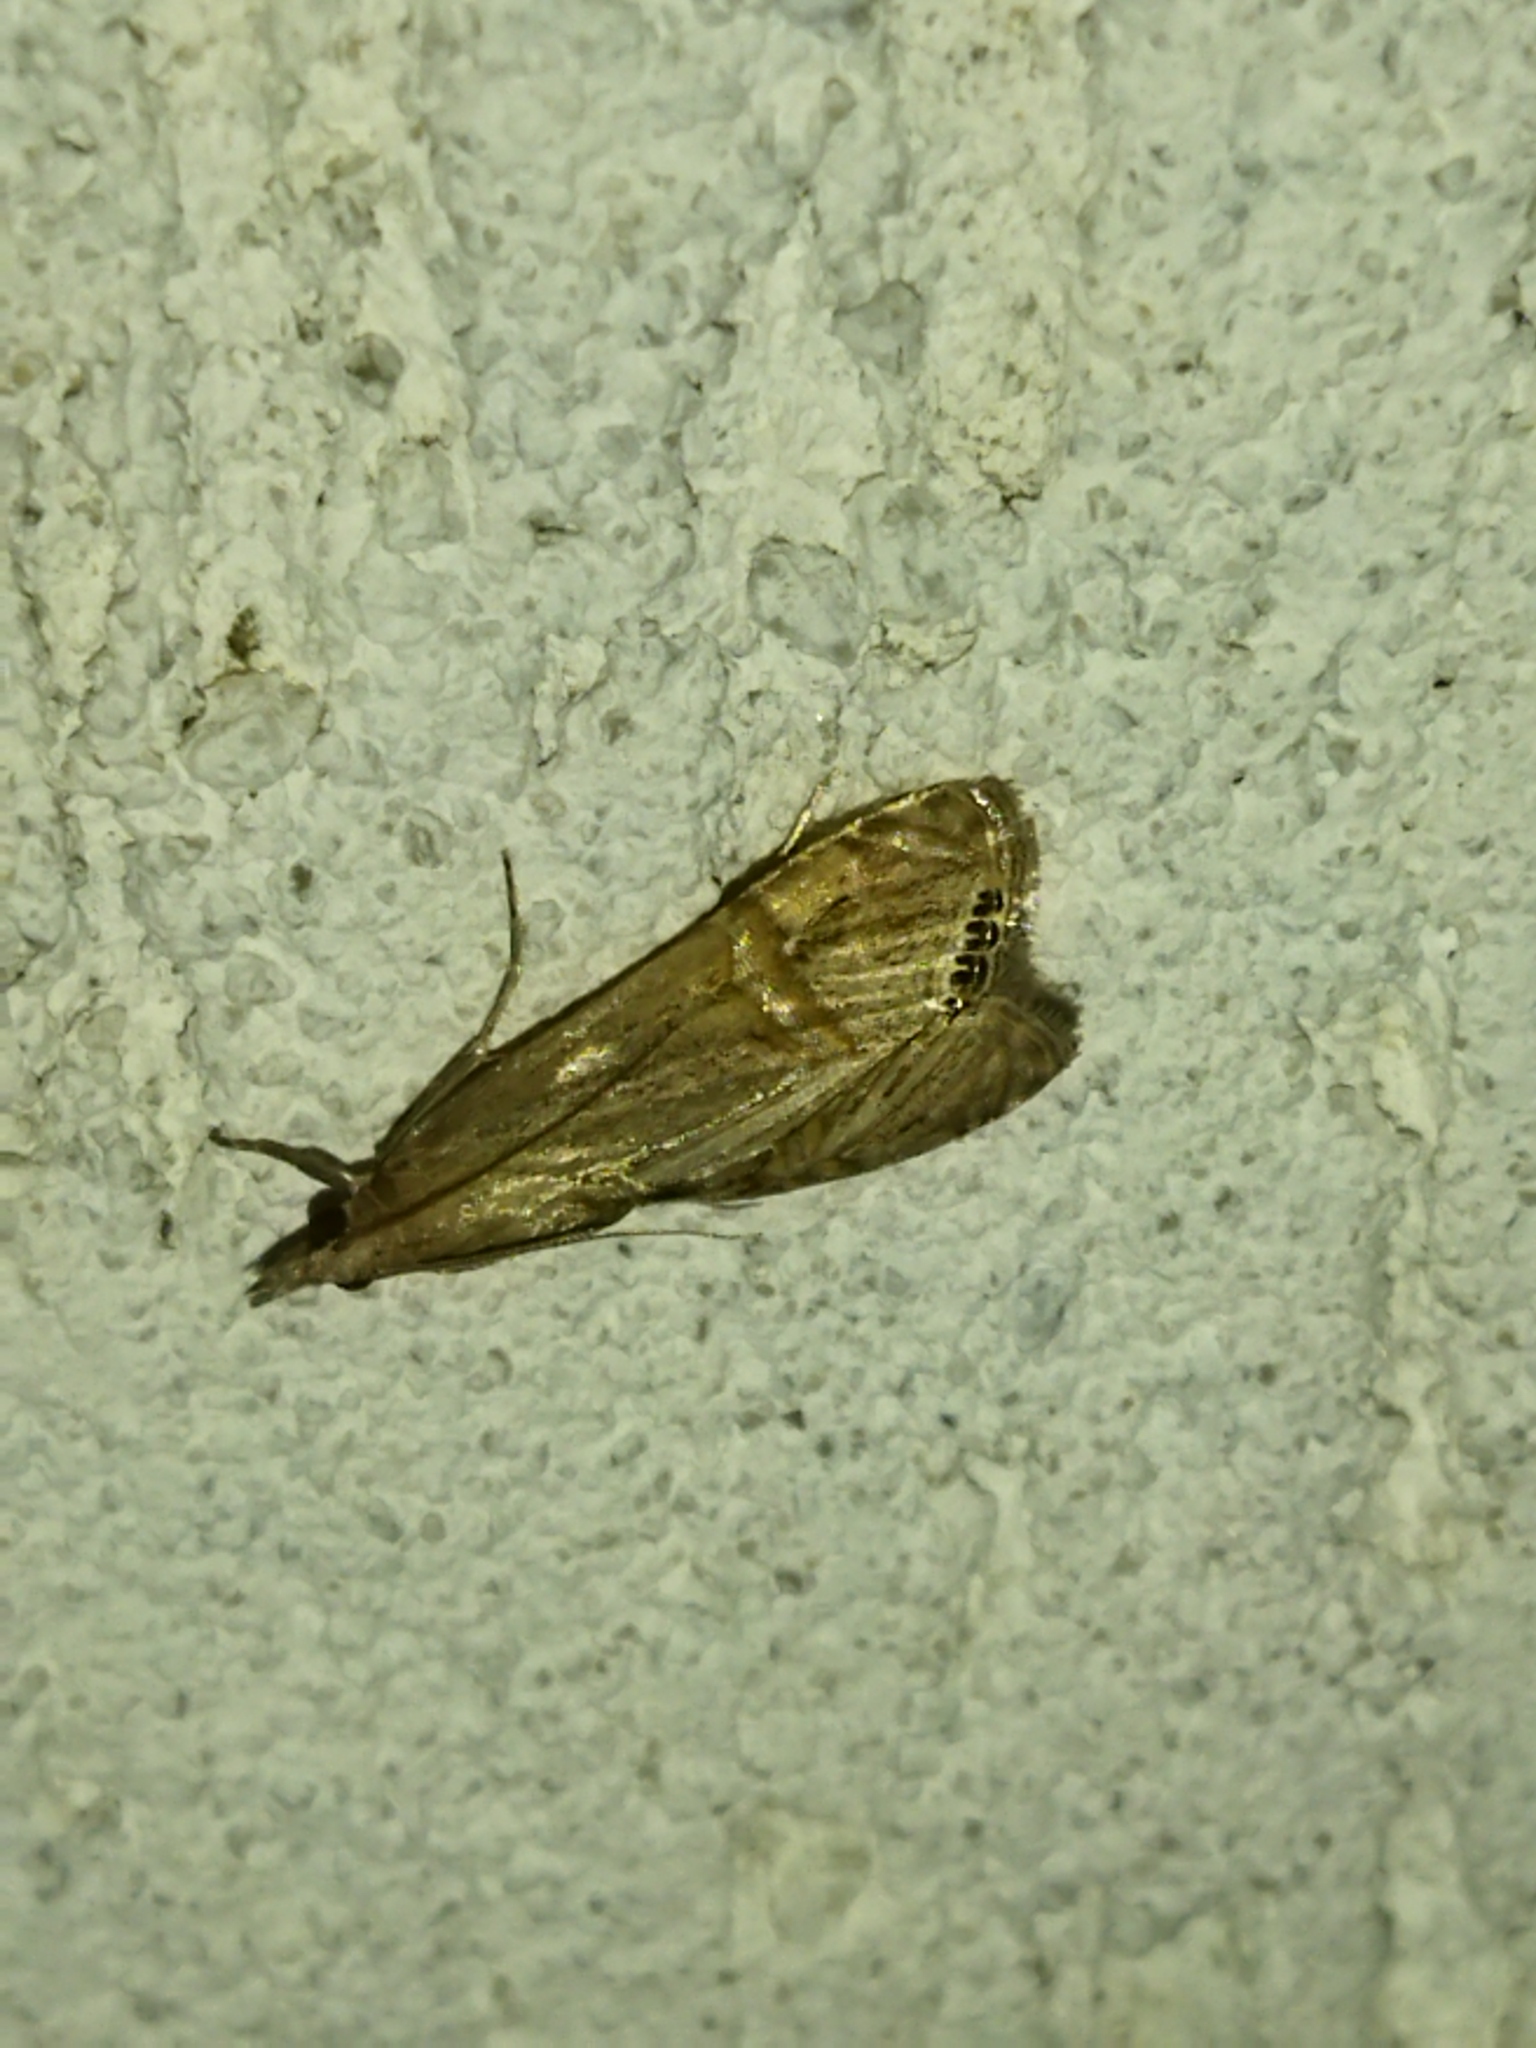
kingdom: Animalia
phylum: Arthropoda
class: Insecta
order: Lepidoptera
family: Crambidae
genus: Euchromius
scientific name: Euchromius ocellea
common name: Necklace veneer moth
